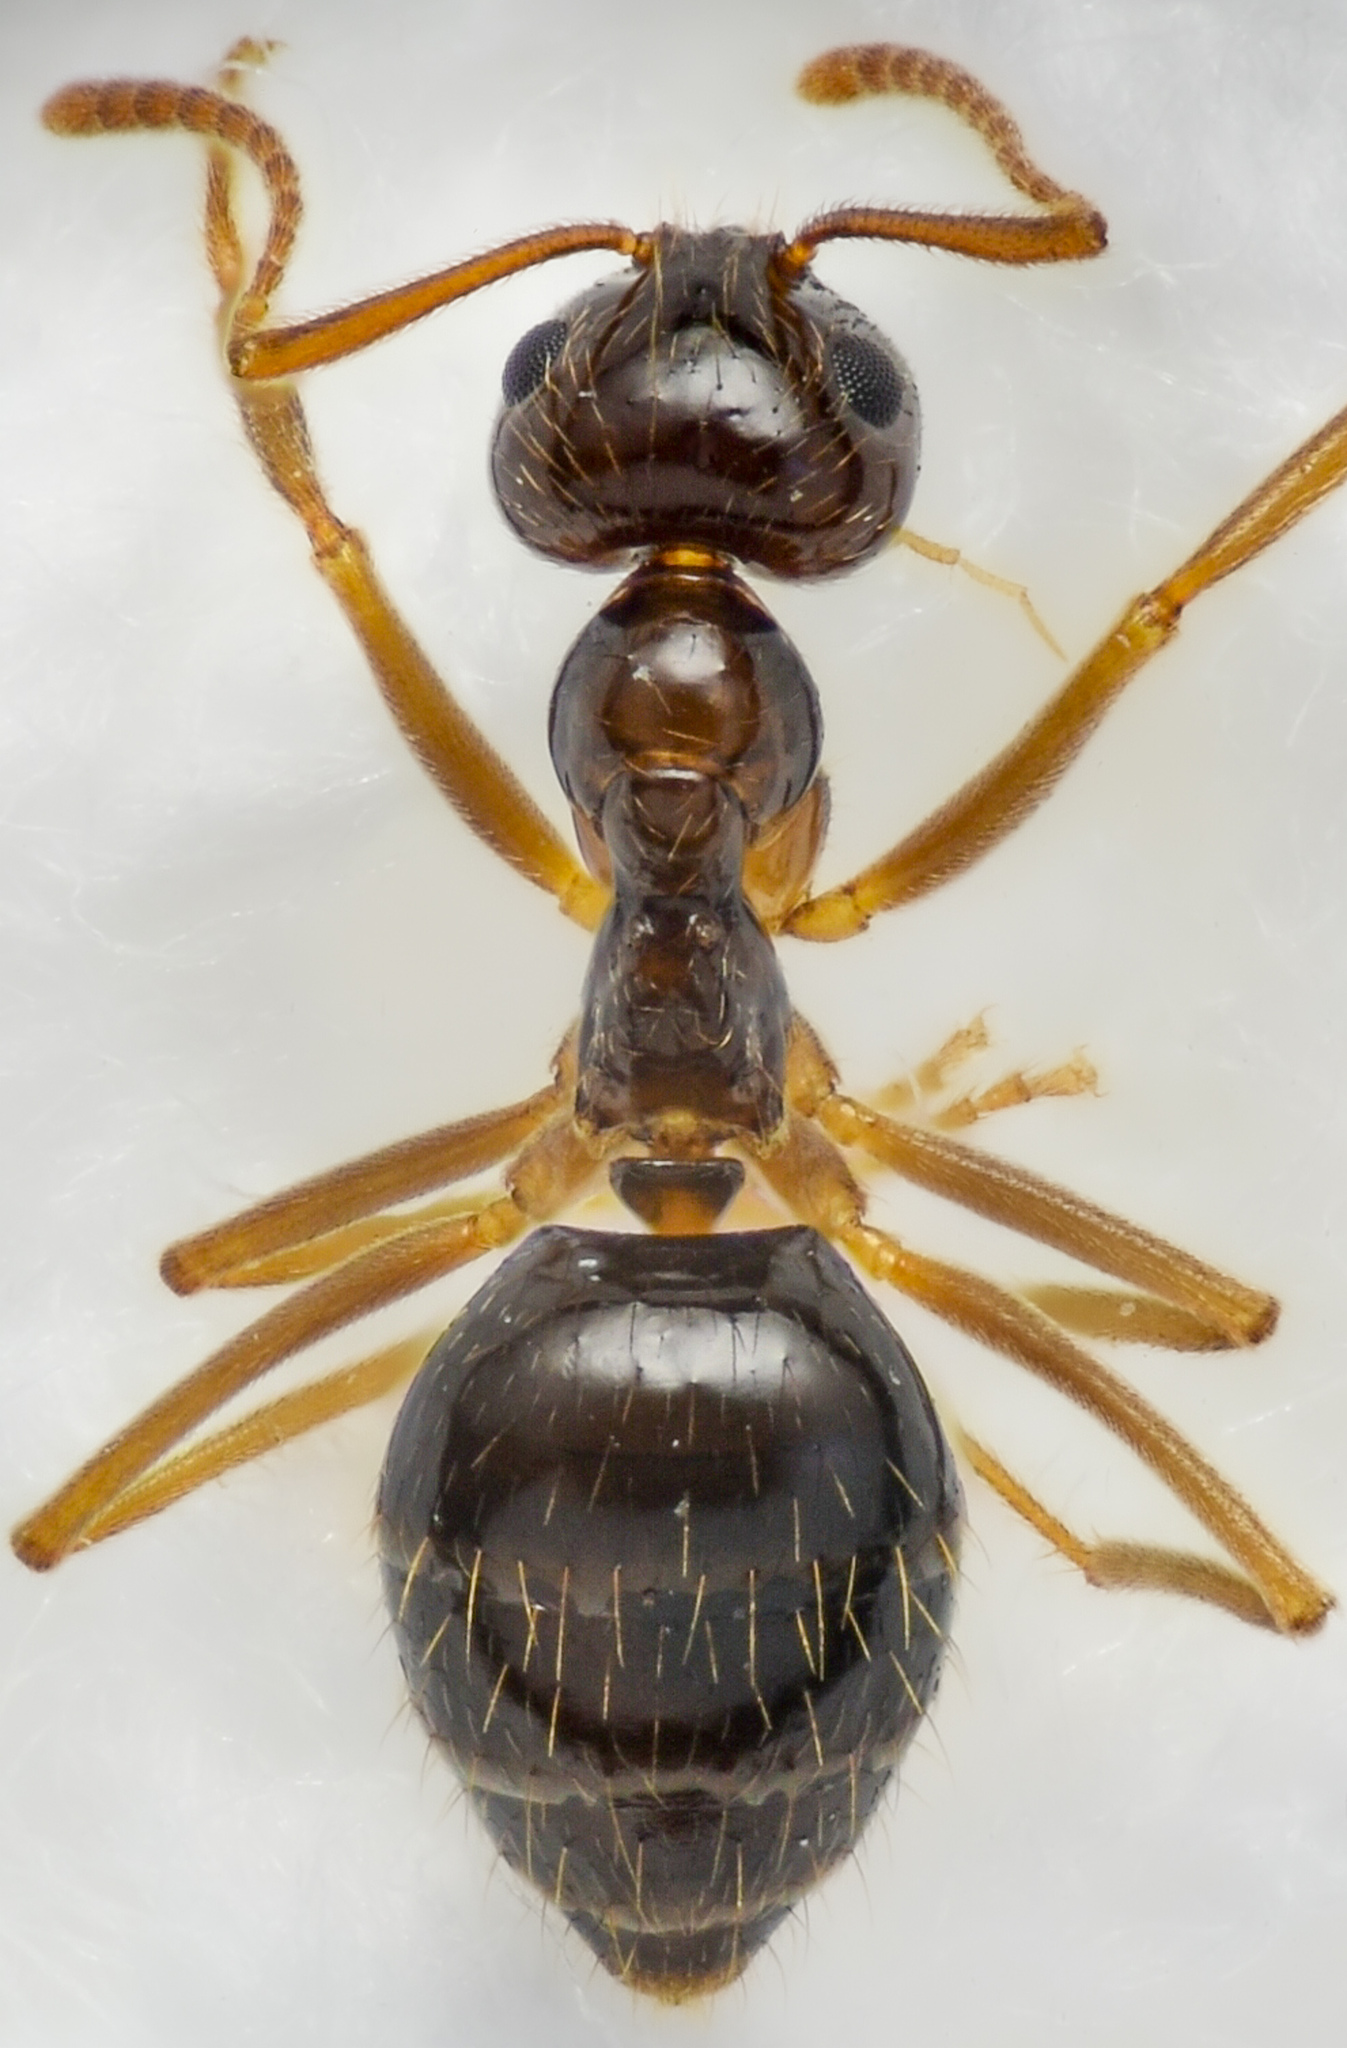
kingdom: Animalia
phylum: Arthropoda
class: Insecta
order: Hymenoptera
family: Formicidae
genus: Prenolepis
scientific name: Prenolepis imparis
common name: Small honey ant
